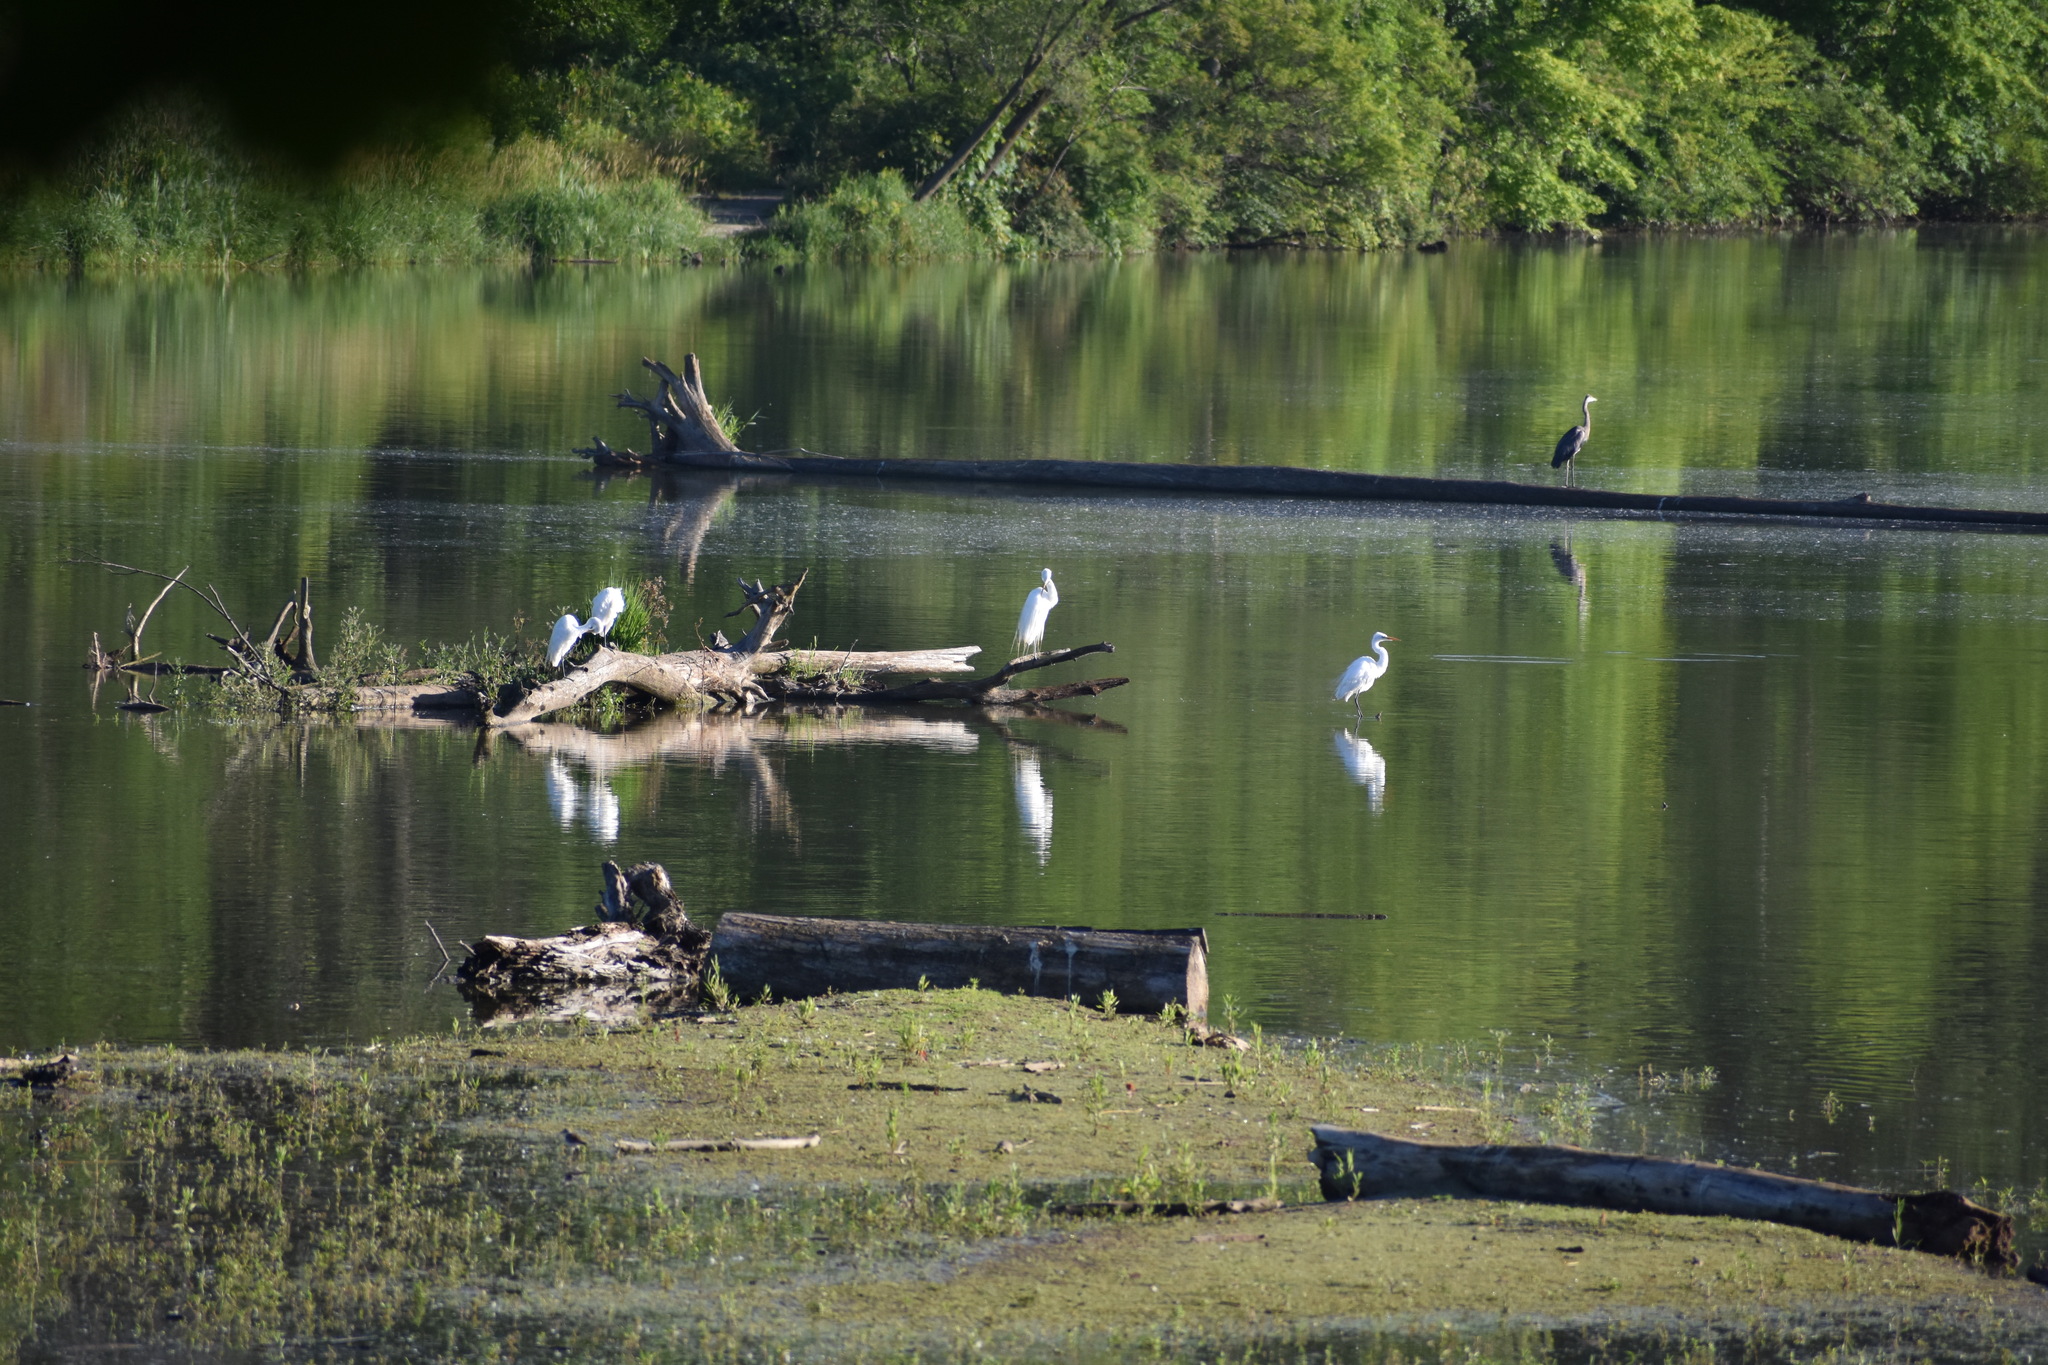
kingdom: Animalia
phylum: Chordata
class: Aves
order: Pelecaniformes
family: Ardeidae
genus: Ardea
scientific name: Ardea alba
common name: Great egret
